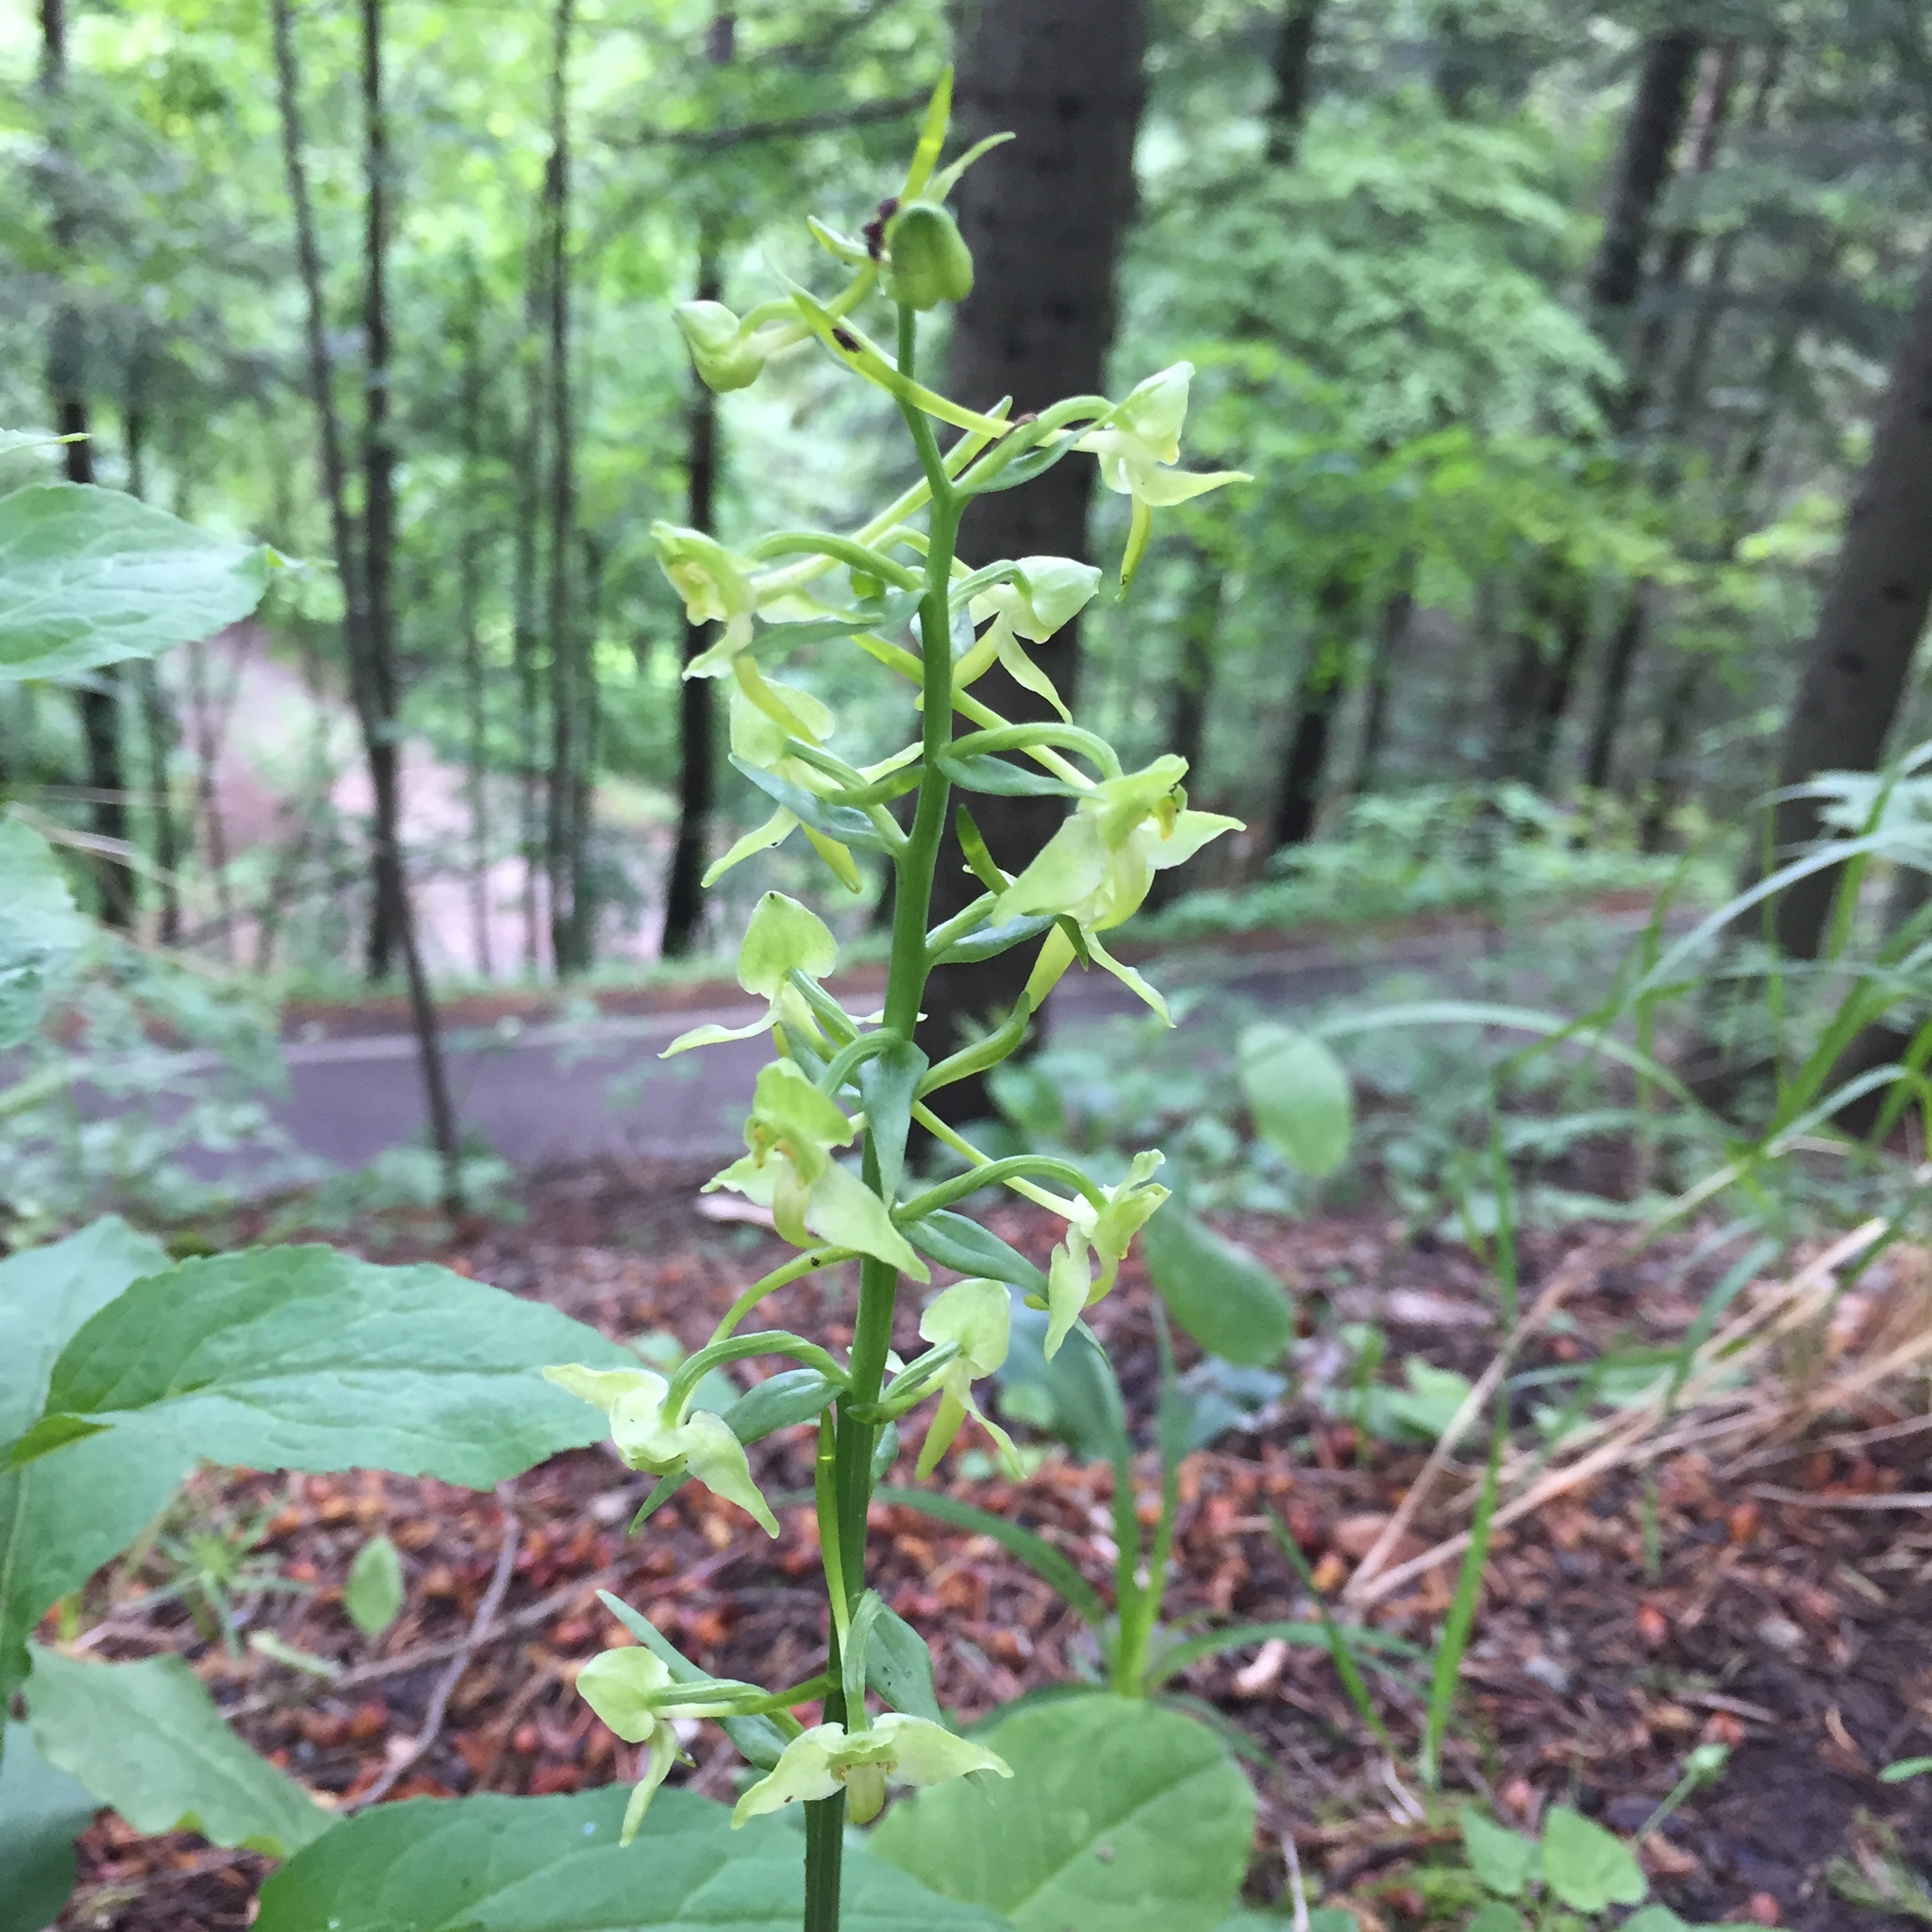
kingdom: Plantae
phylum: Tracheophyta
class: Liliopsida
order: Asparagales
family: Orchidaceae
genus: Platanthera
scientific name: Platanthera chlorantha
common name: Greater butterfly-orchid
